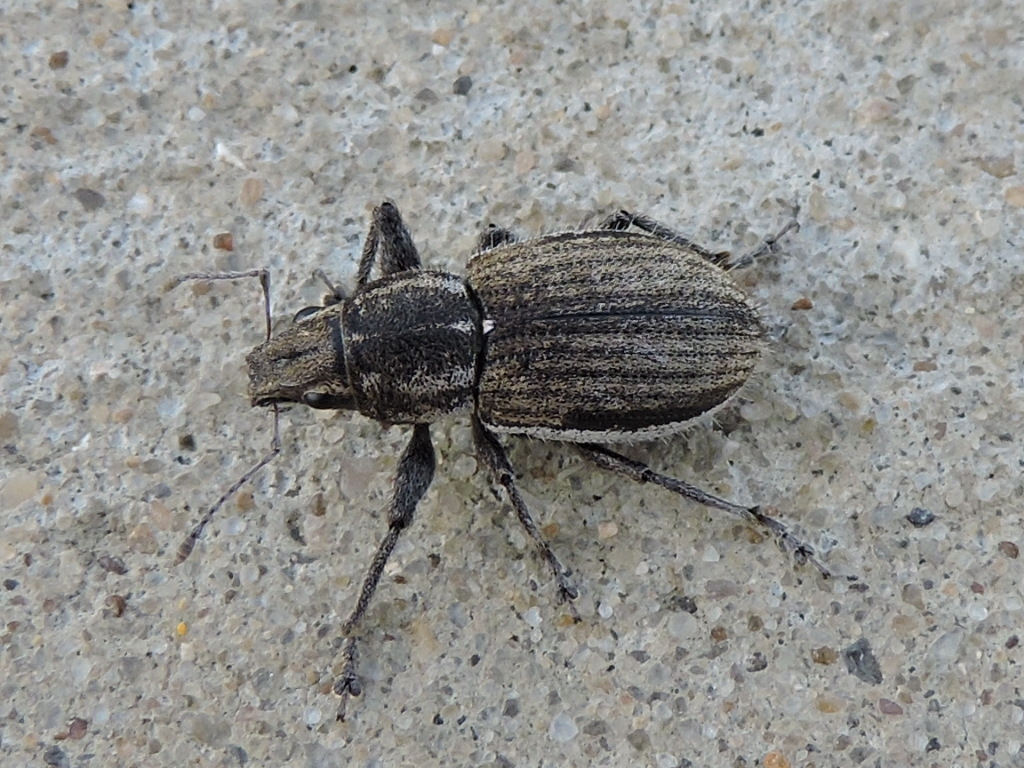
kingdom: Animalia
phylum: Arthropoda
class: Insecta
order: Coleoptera
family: Curculionidae
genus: Naupactus
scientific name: Naupactus leucoloma
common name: Whitefringed beetle
